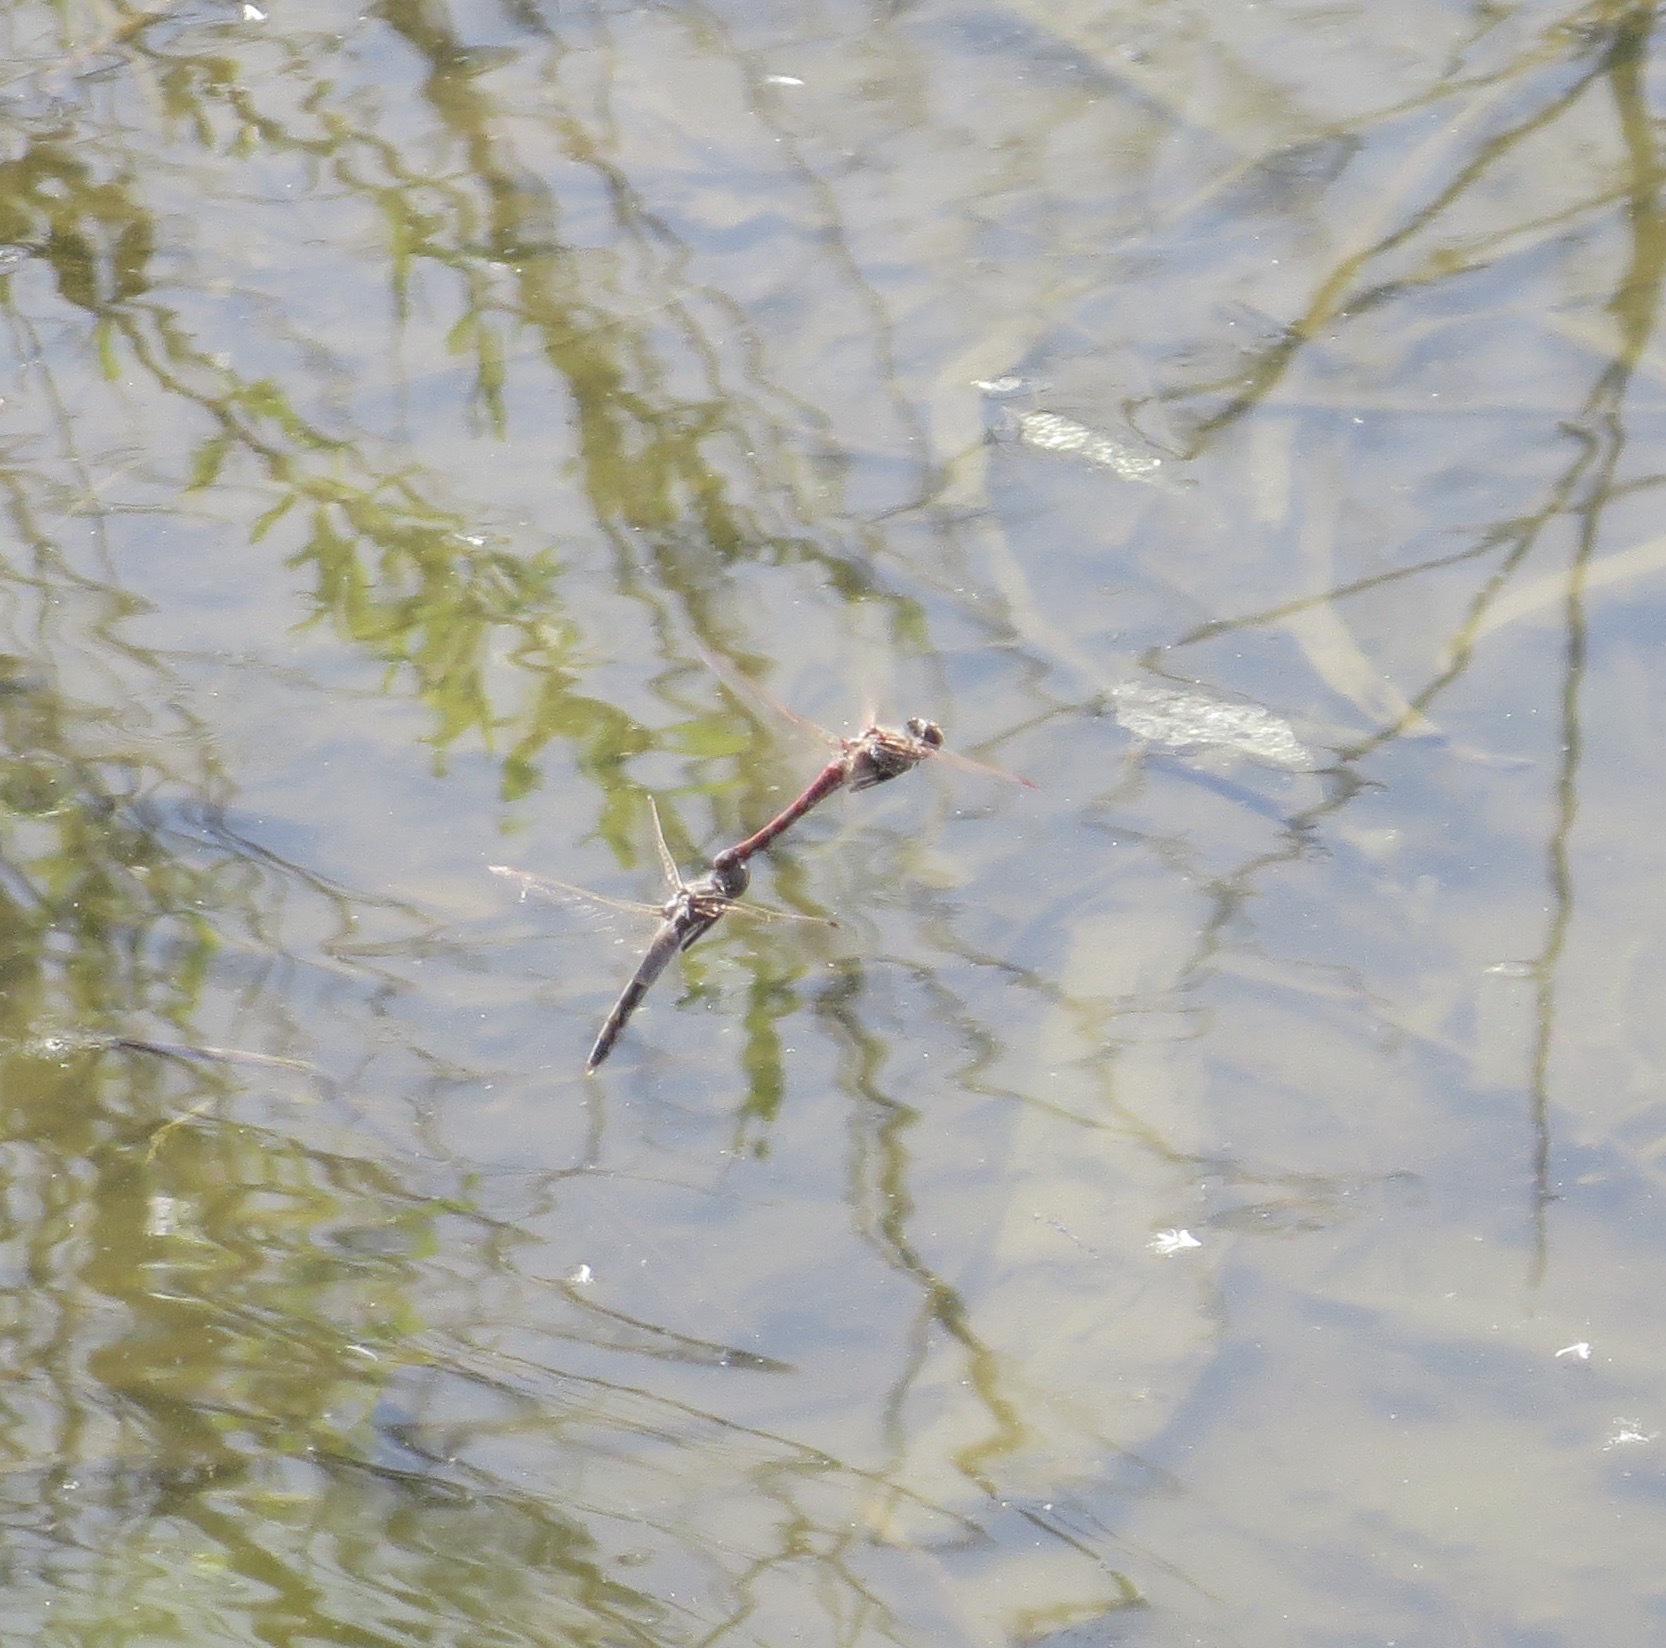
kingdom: Animalia
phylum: Arthropoda
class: Insecta
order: Odonata
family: Libellulidae
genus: Sympetrum
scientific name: Sympetrum corruptum
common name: Variegated meadowhawk
